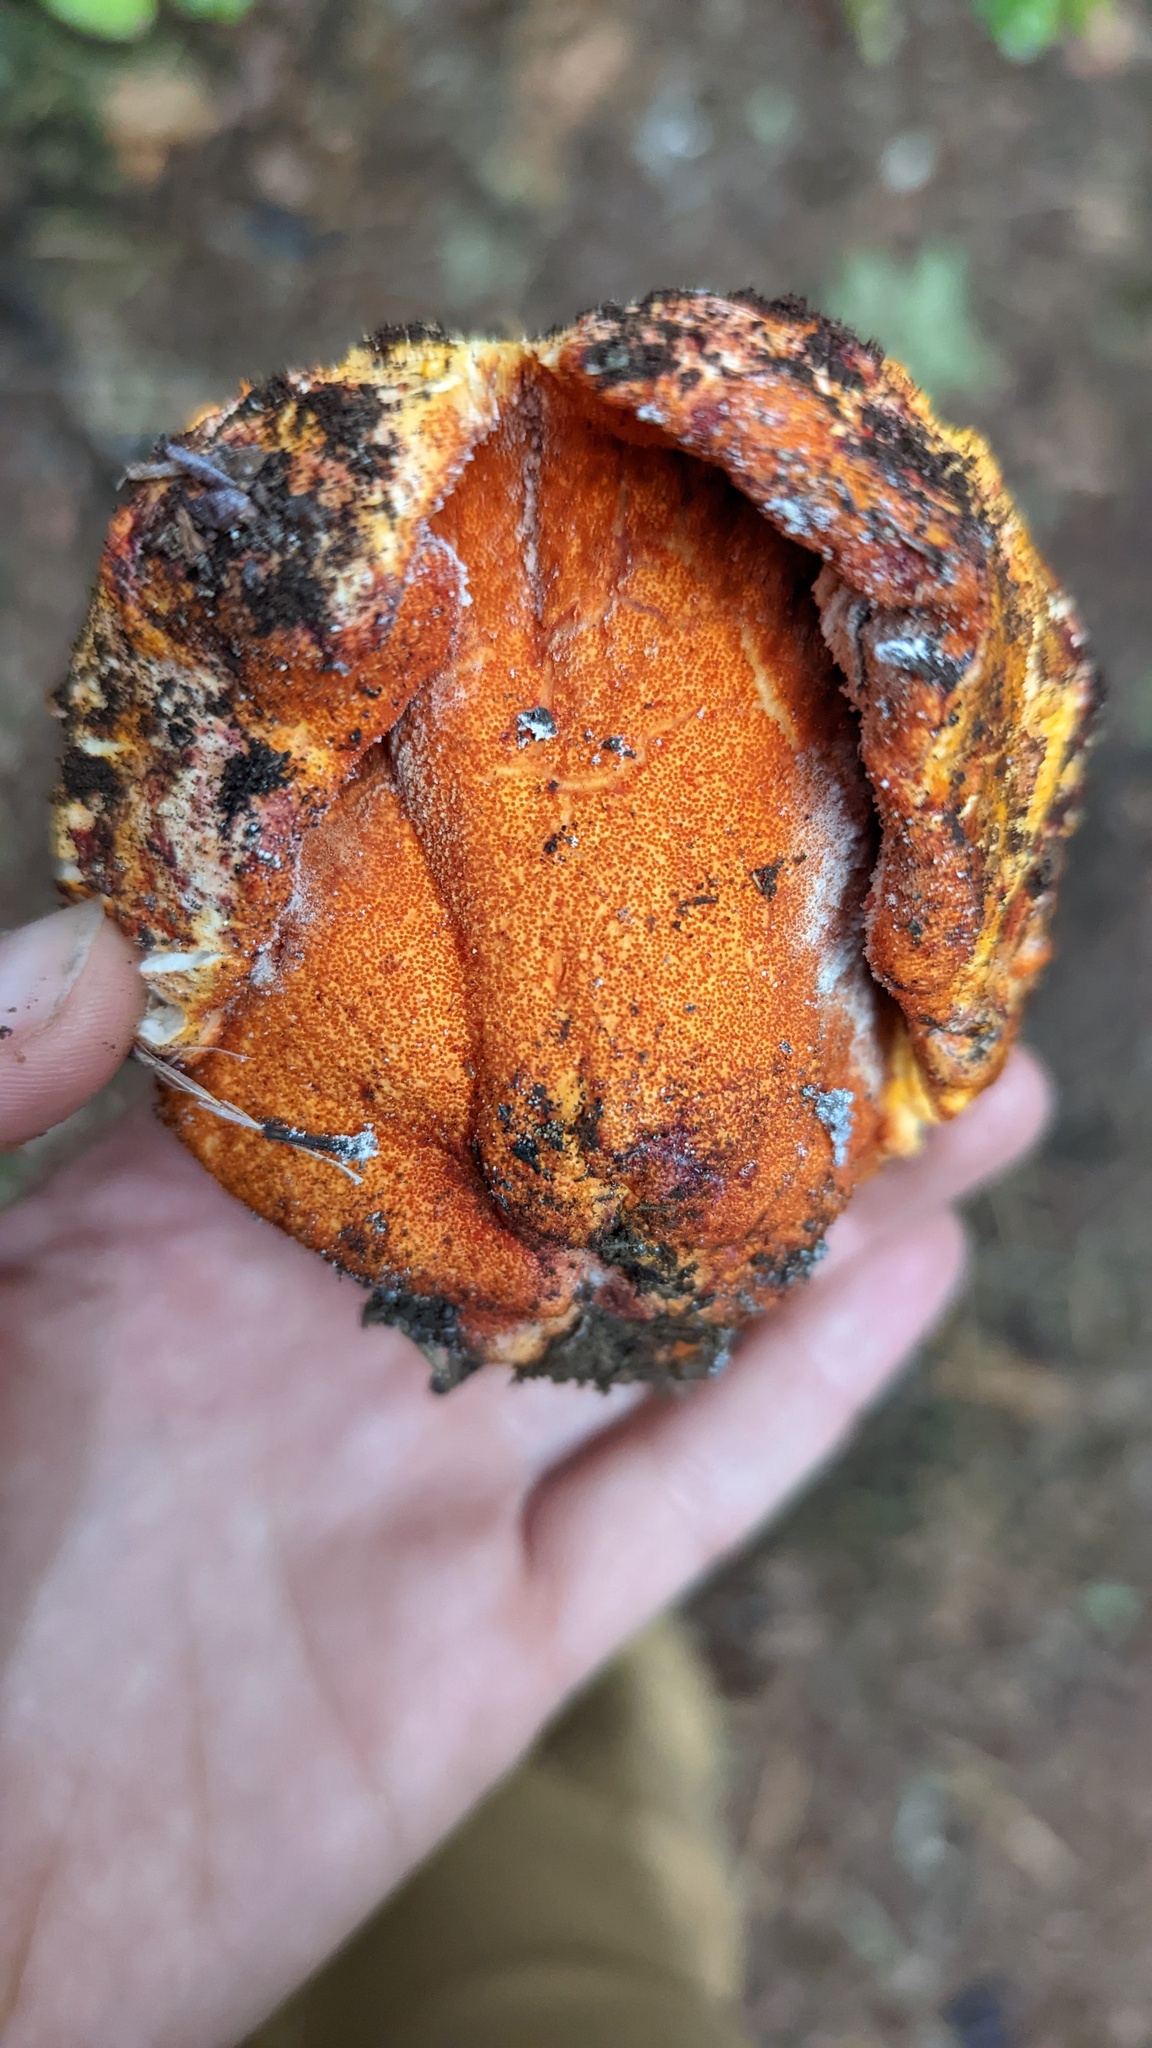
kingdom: Fungi
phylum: Ascomycota
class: Sordariomycetes
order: Hypocreales
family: Hypocreaceae
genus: Hypomyces
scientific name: Hypomyces lactifluorum
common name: Lobster mushroom
